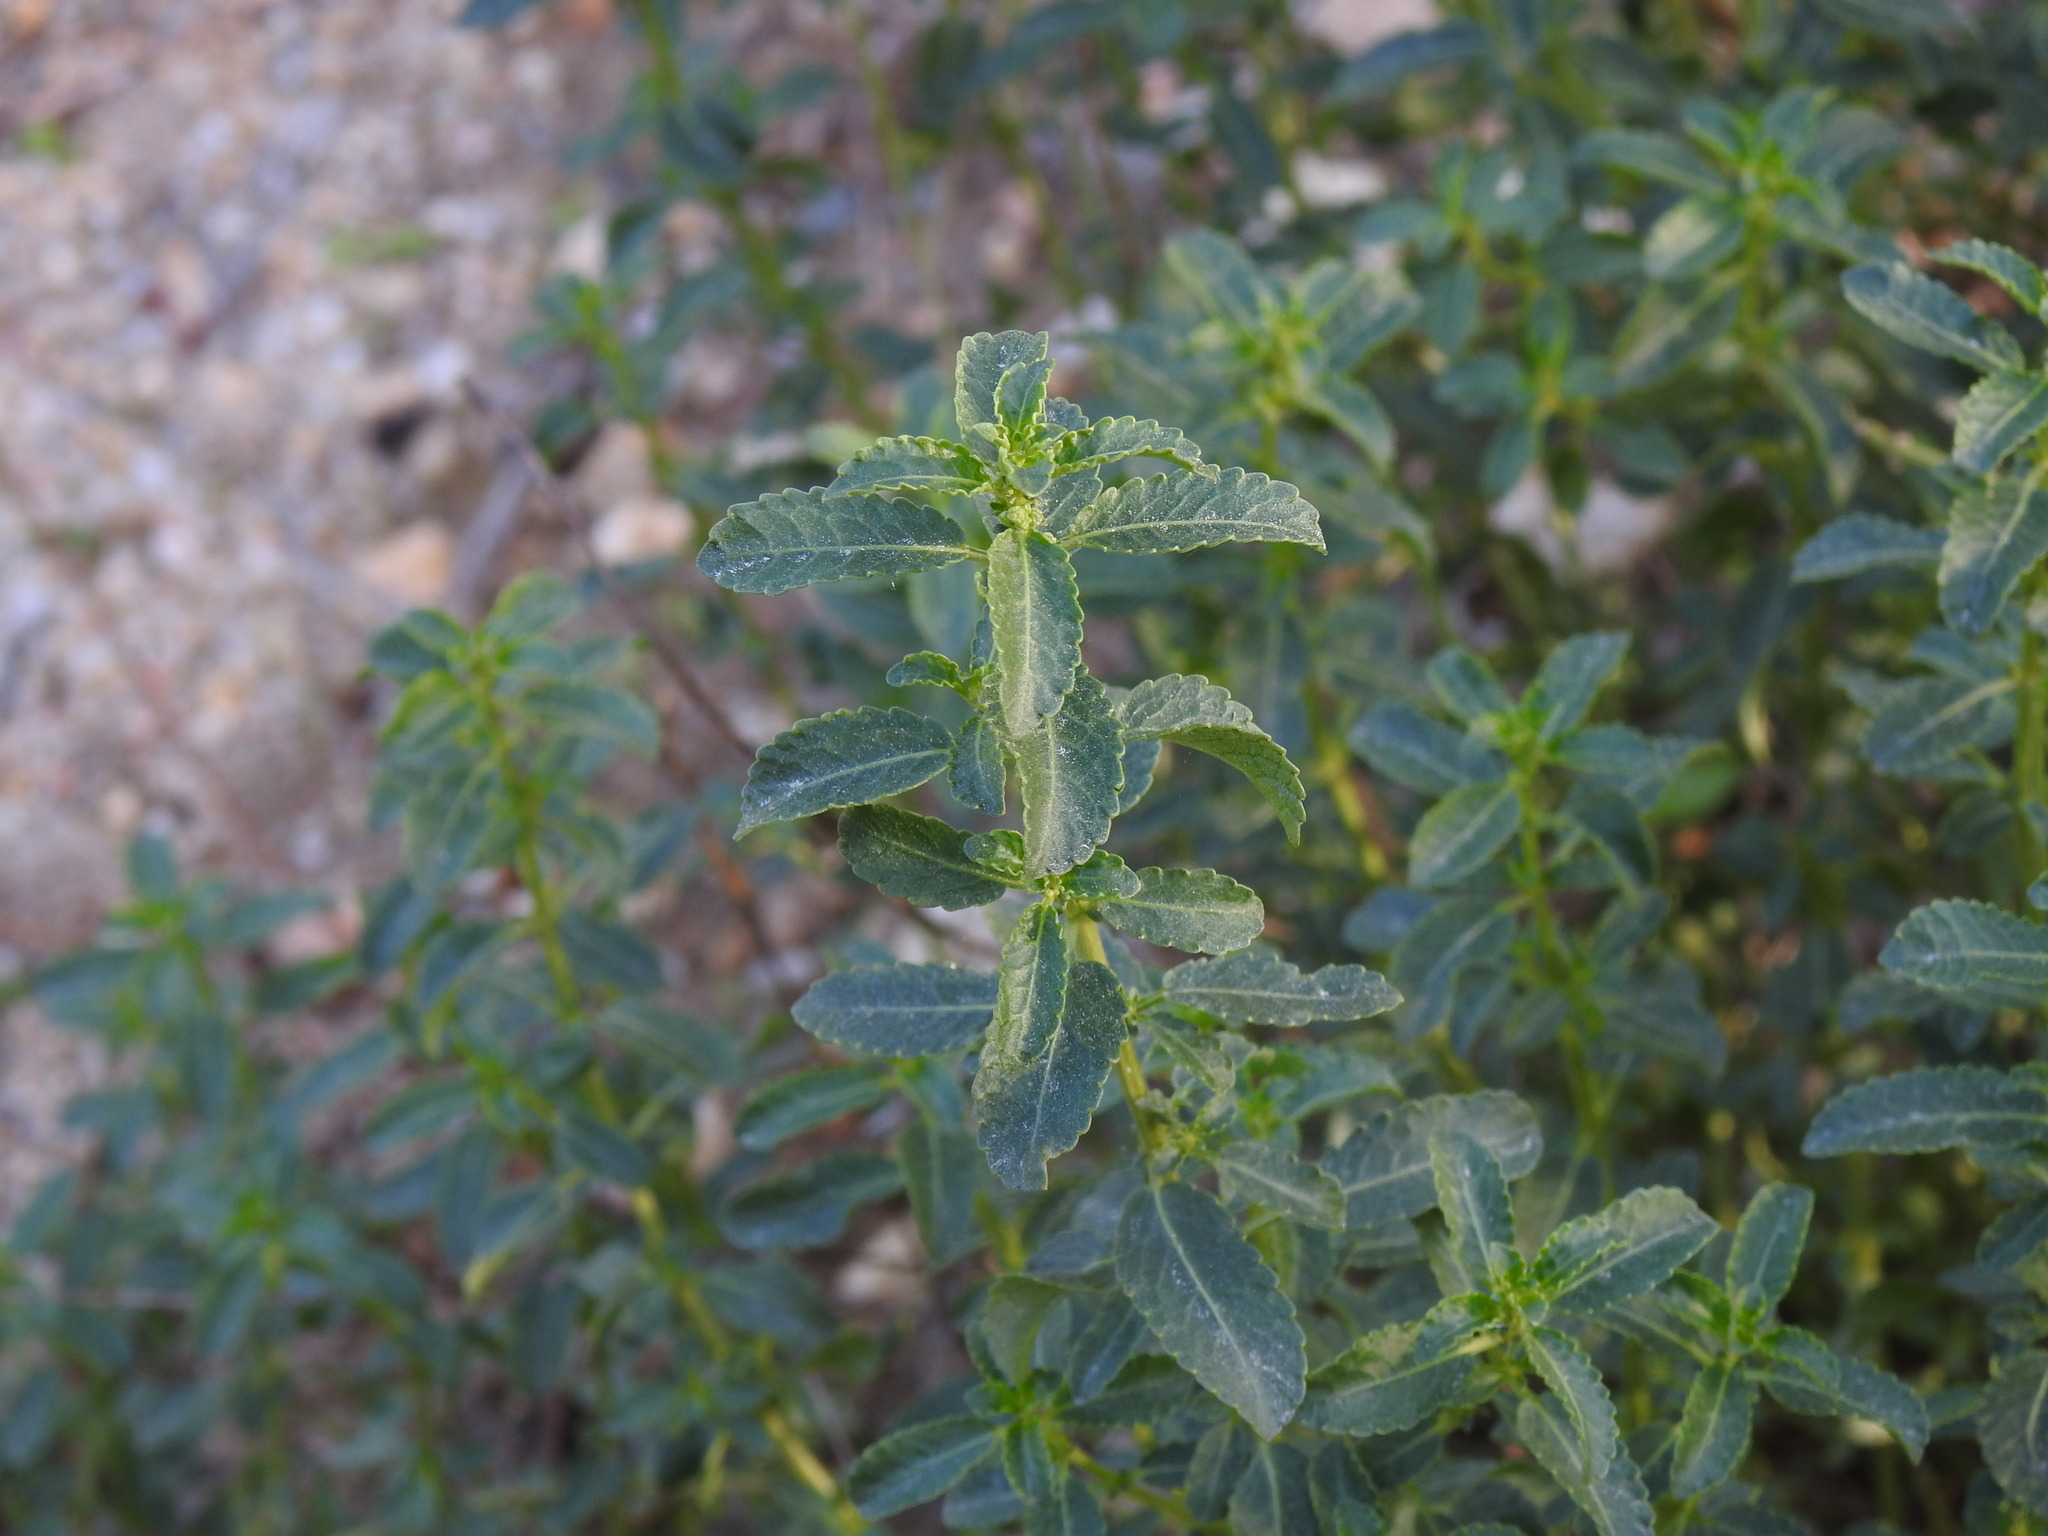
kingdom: Plantae
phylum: Tracheophyta
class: Magnoliopsida
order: Malpighiales
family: Euphorbiaceae
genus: Mercurialis
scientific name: Mercurialis elliptica
